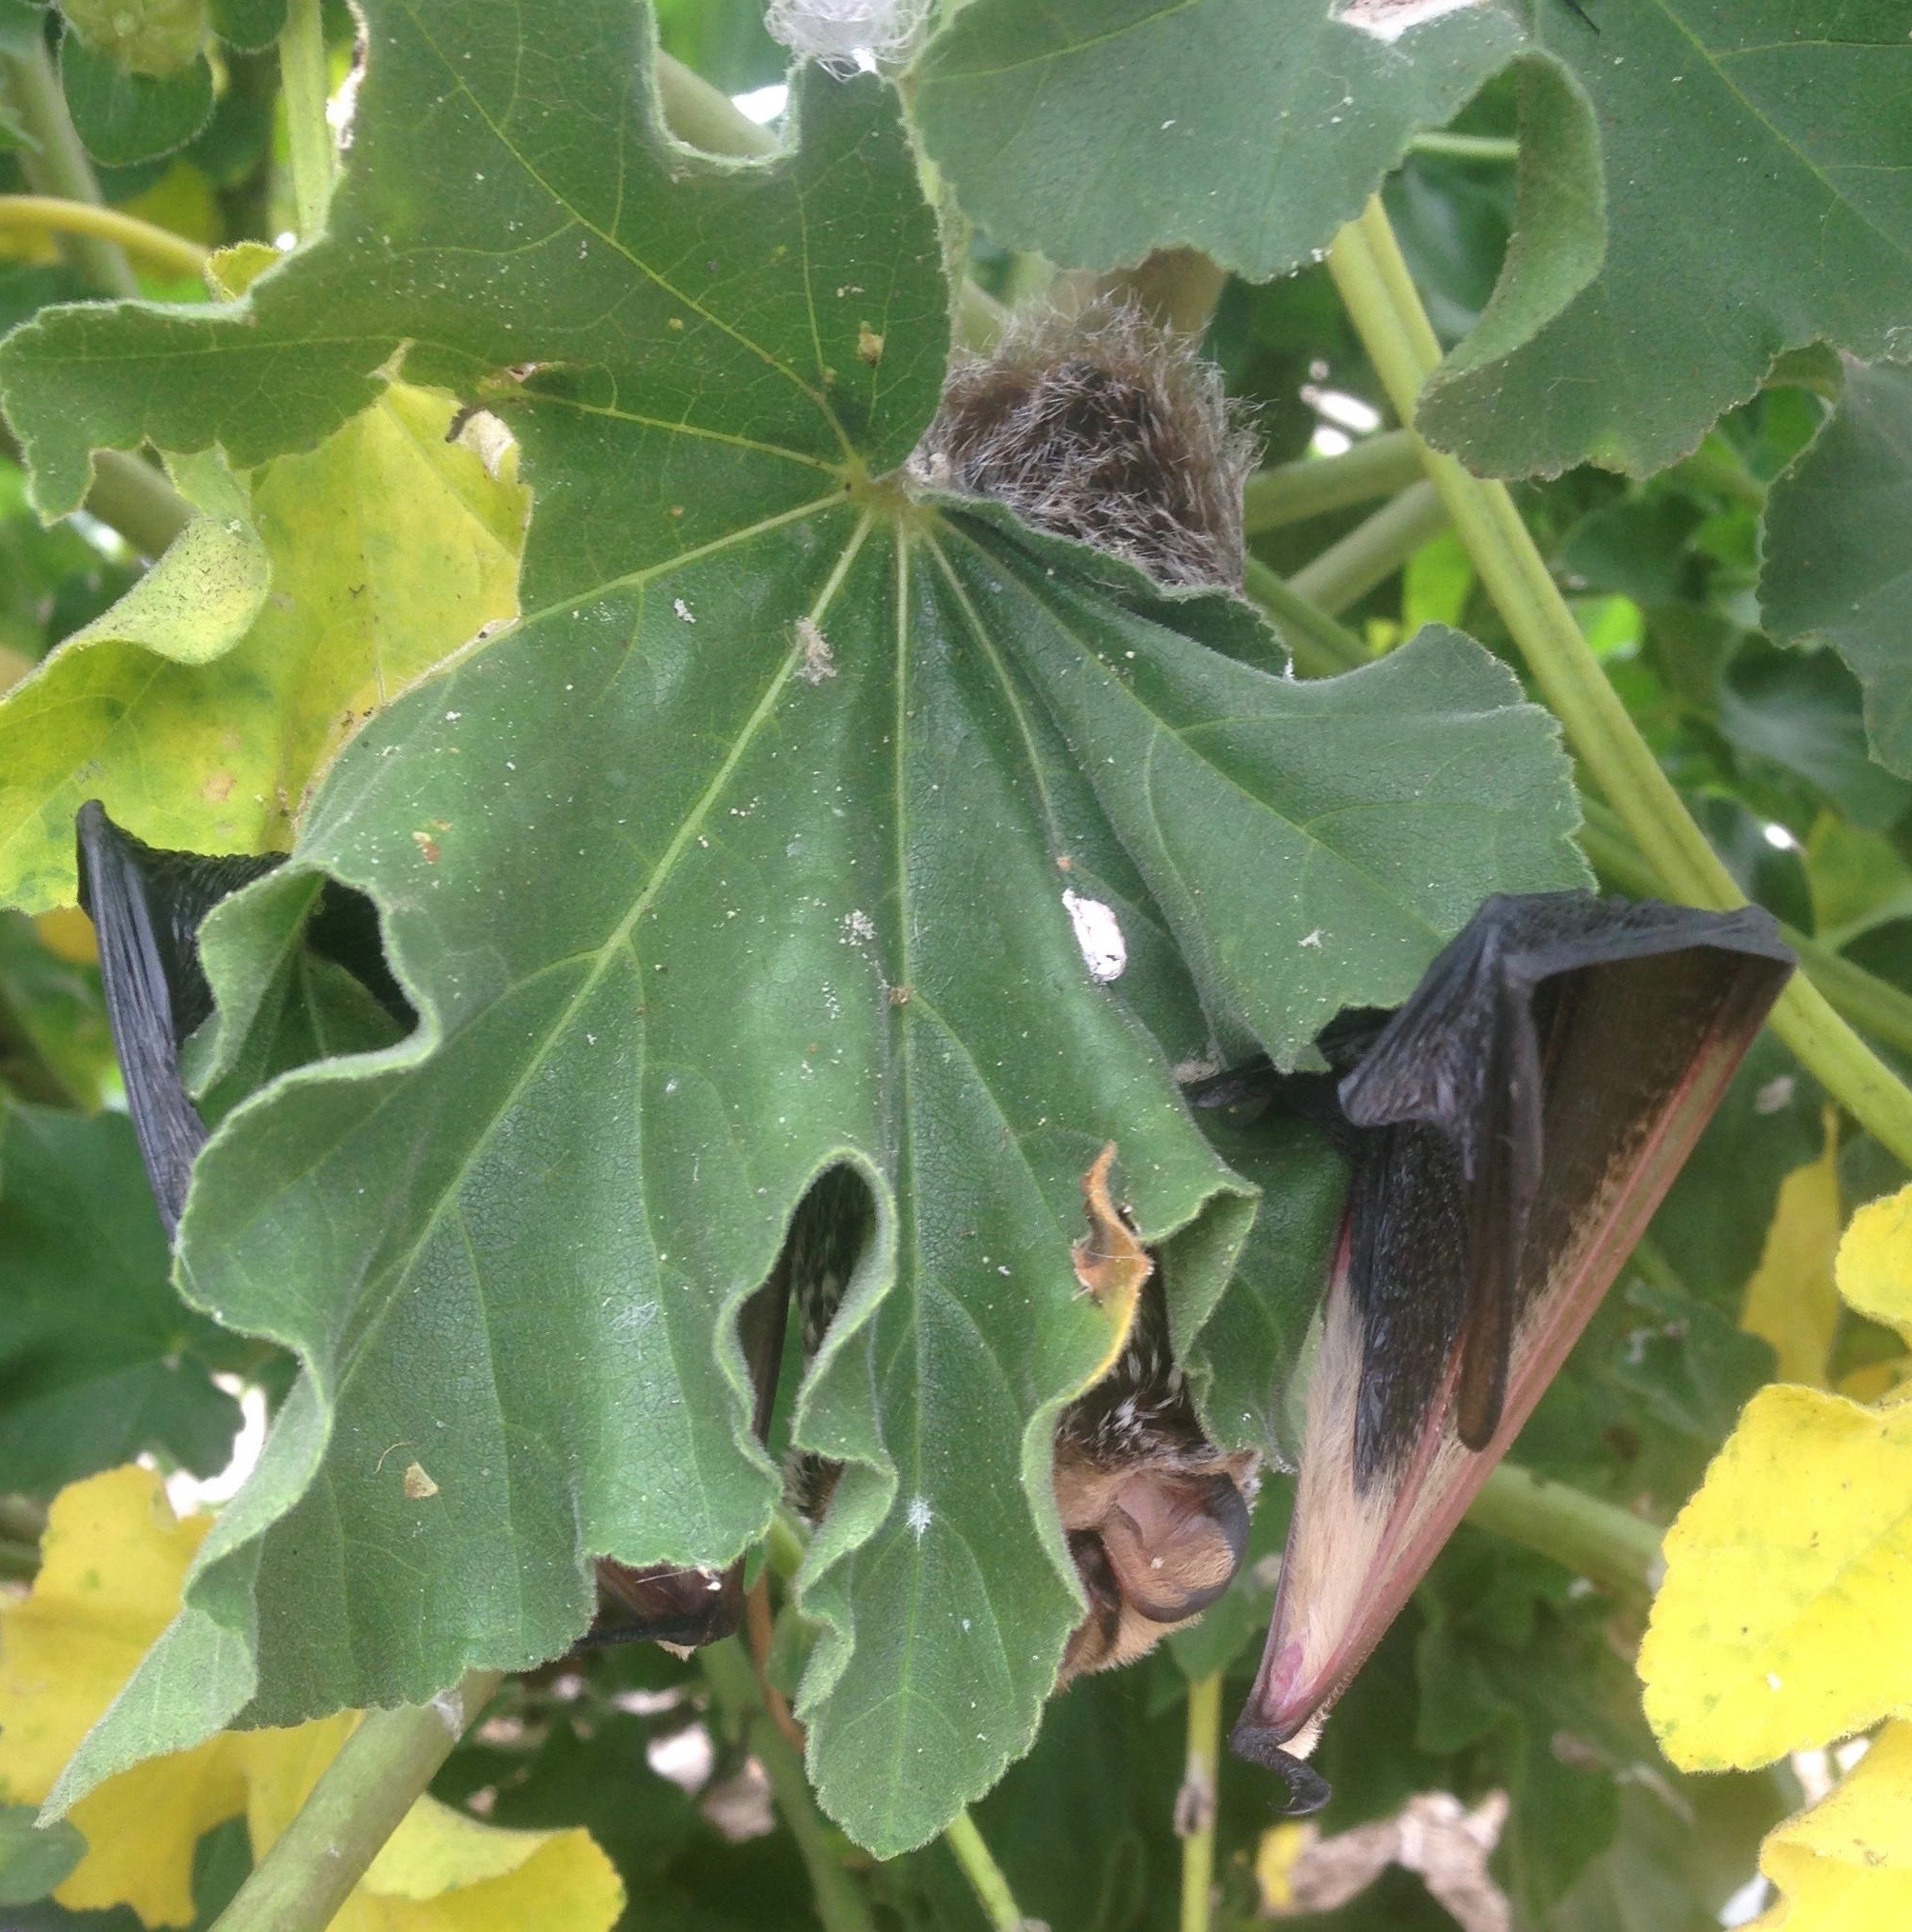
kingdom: Animalia
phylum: Chordata
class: Mammalia
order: Chiroptera
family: Vespertilionidae
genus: Aeorestes
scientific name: Aeorestes cinereus
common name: North american hoary bat
